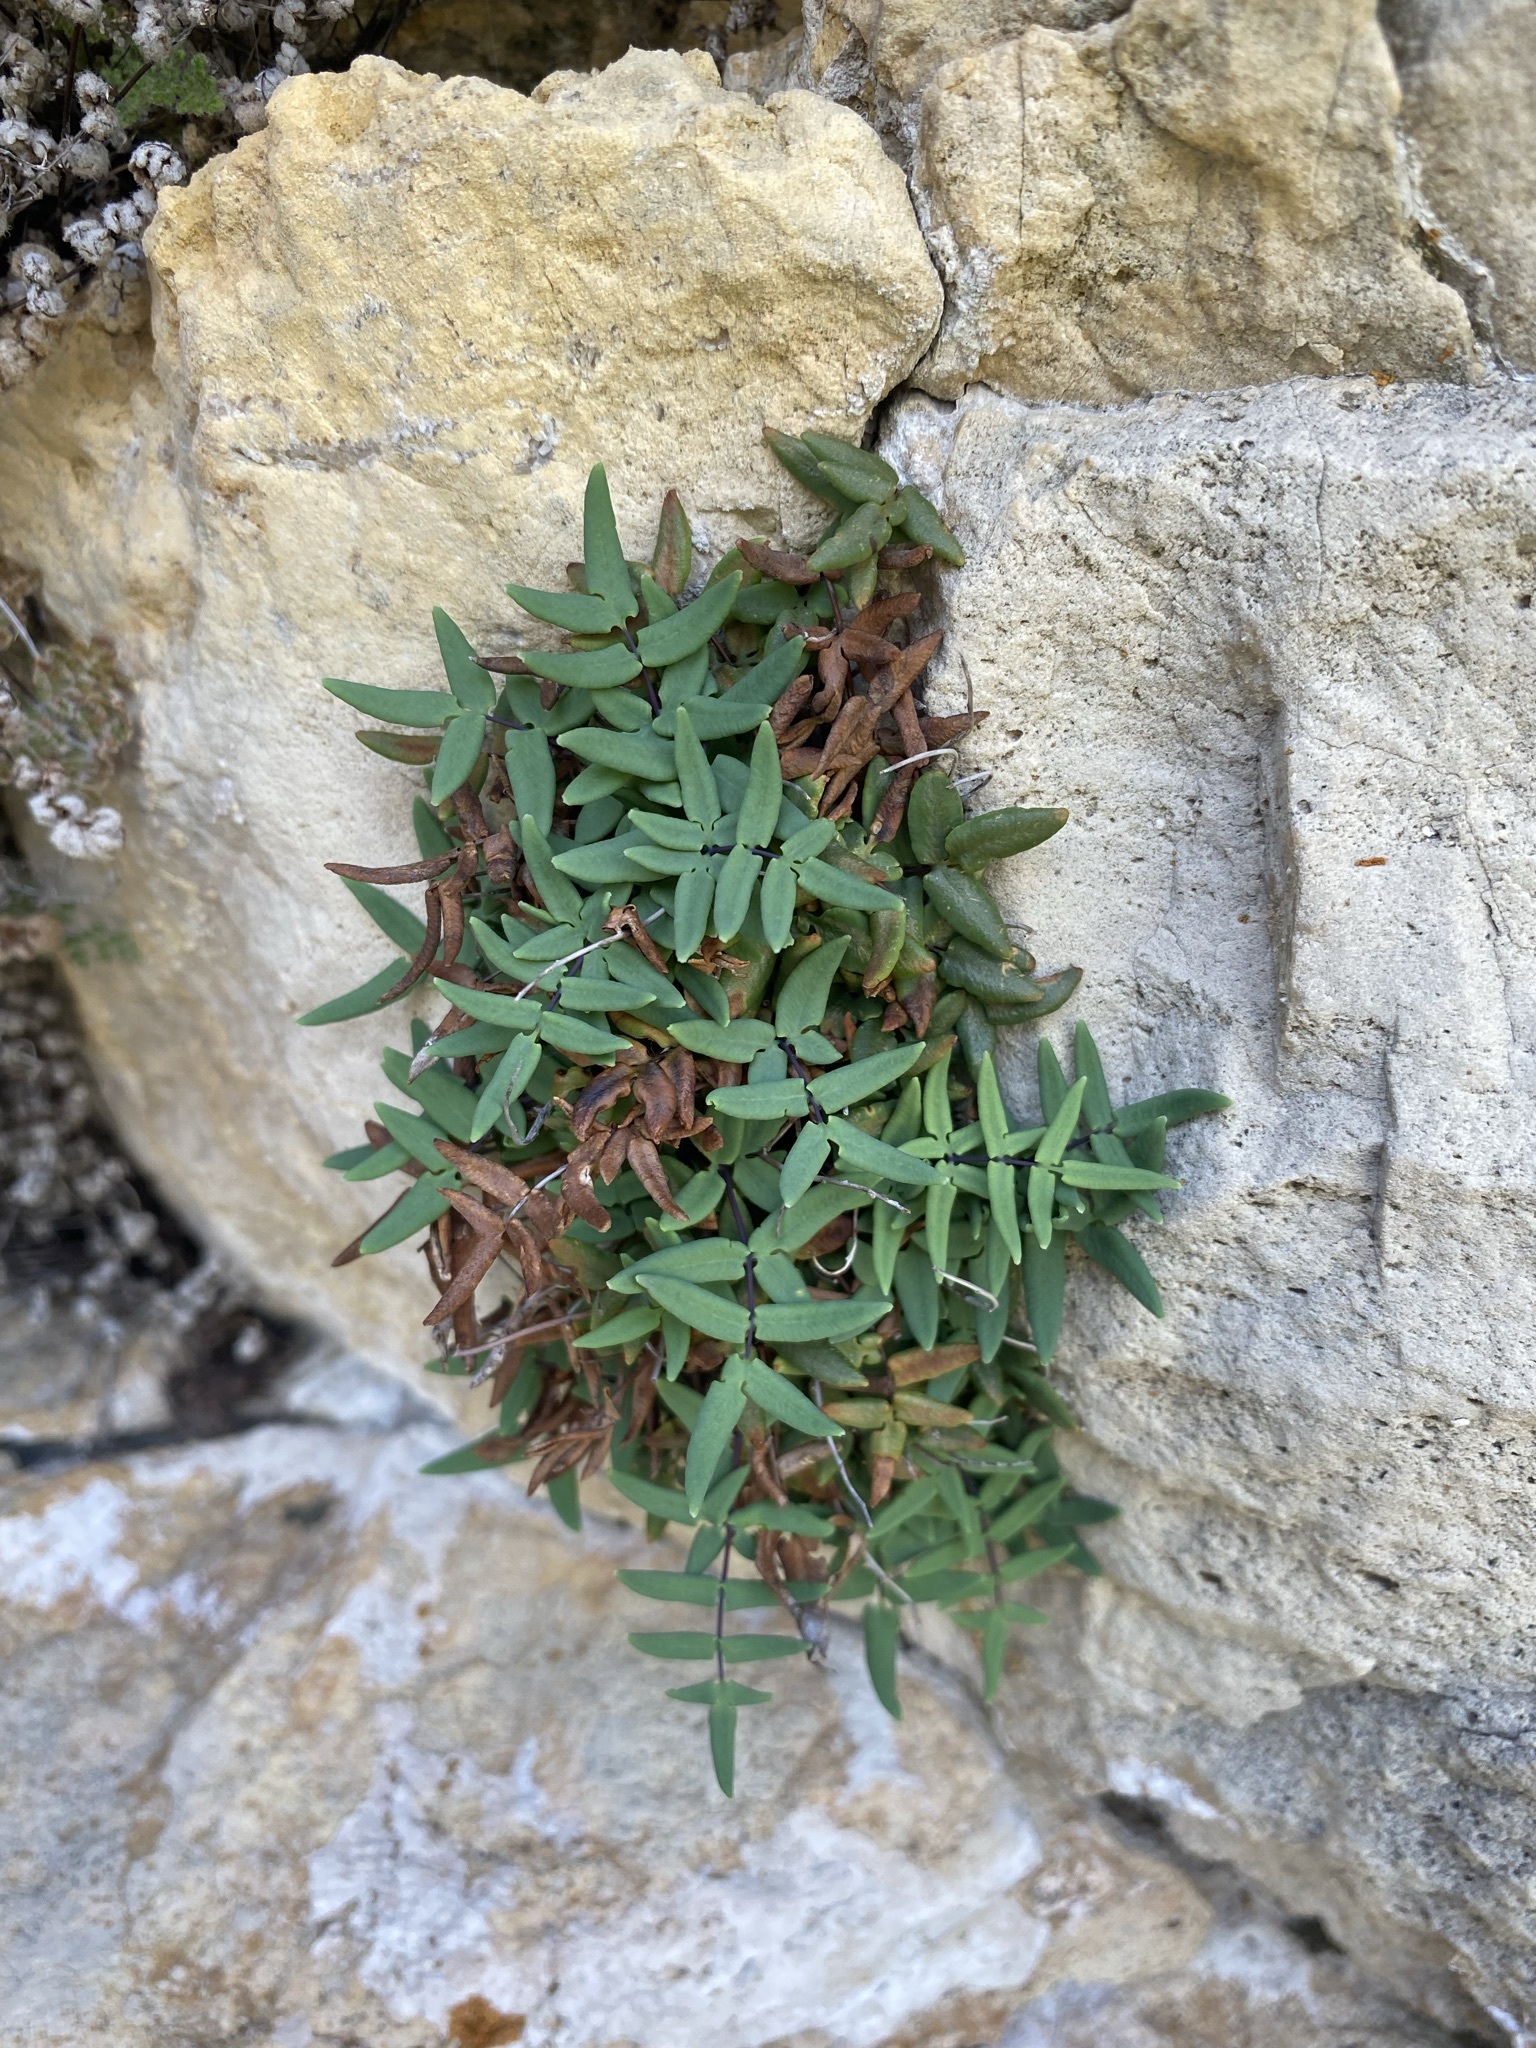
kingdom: Plantae
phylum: Tracheophyta
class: Polypodiopsida
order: Polypodiales
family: Pteridaceae
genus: Pellaea
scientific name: Pellaea glabella
